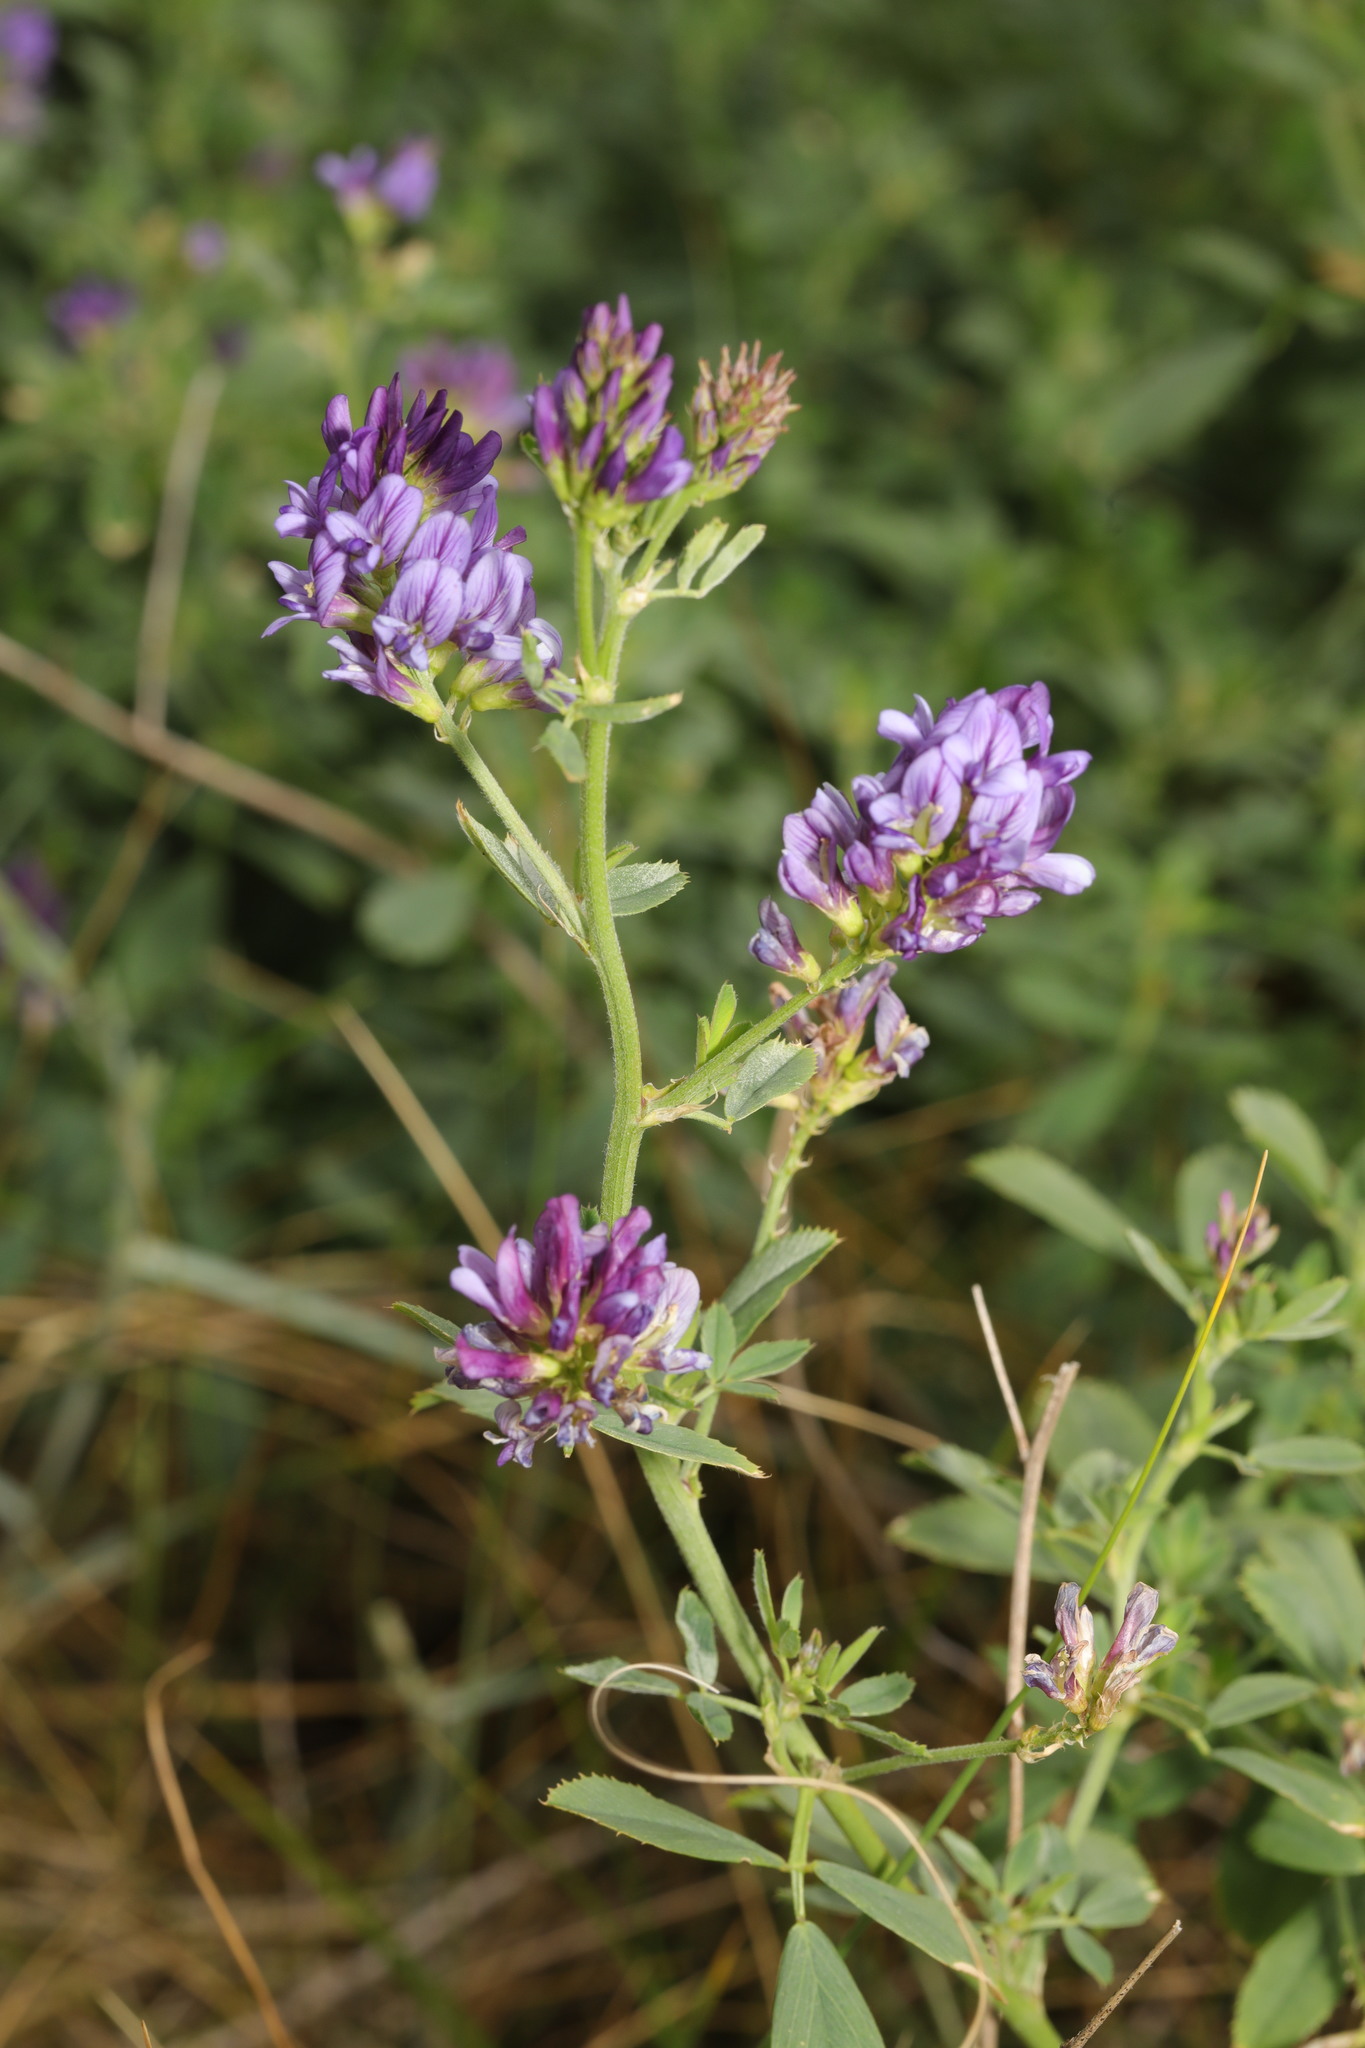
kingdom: Plantae
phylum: Tracheophyta
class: Magnoliopsida
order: Fabales
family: Fabaceae
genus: Medicago
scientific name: Medicago sativa
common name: Alfalfa
